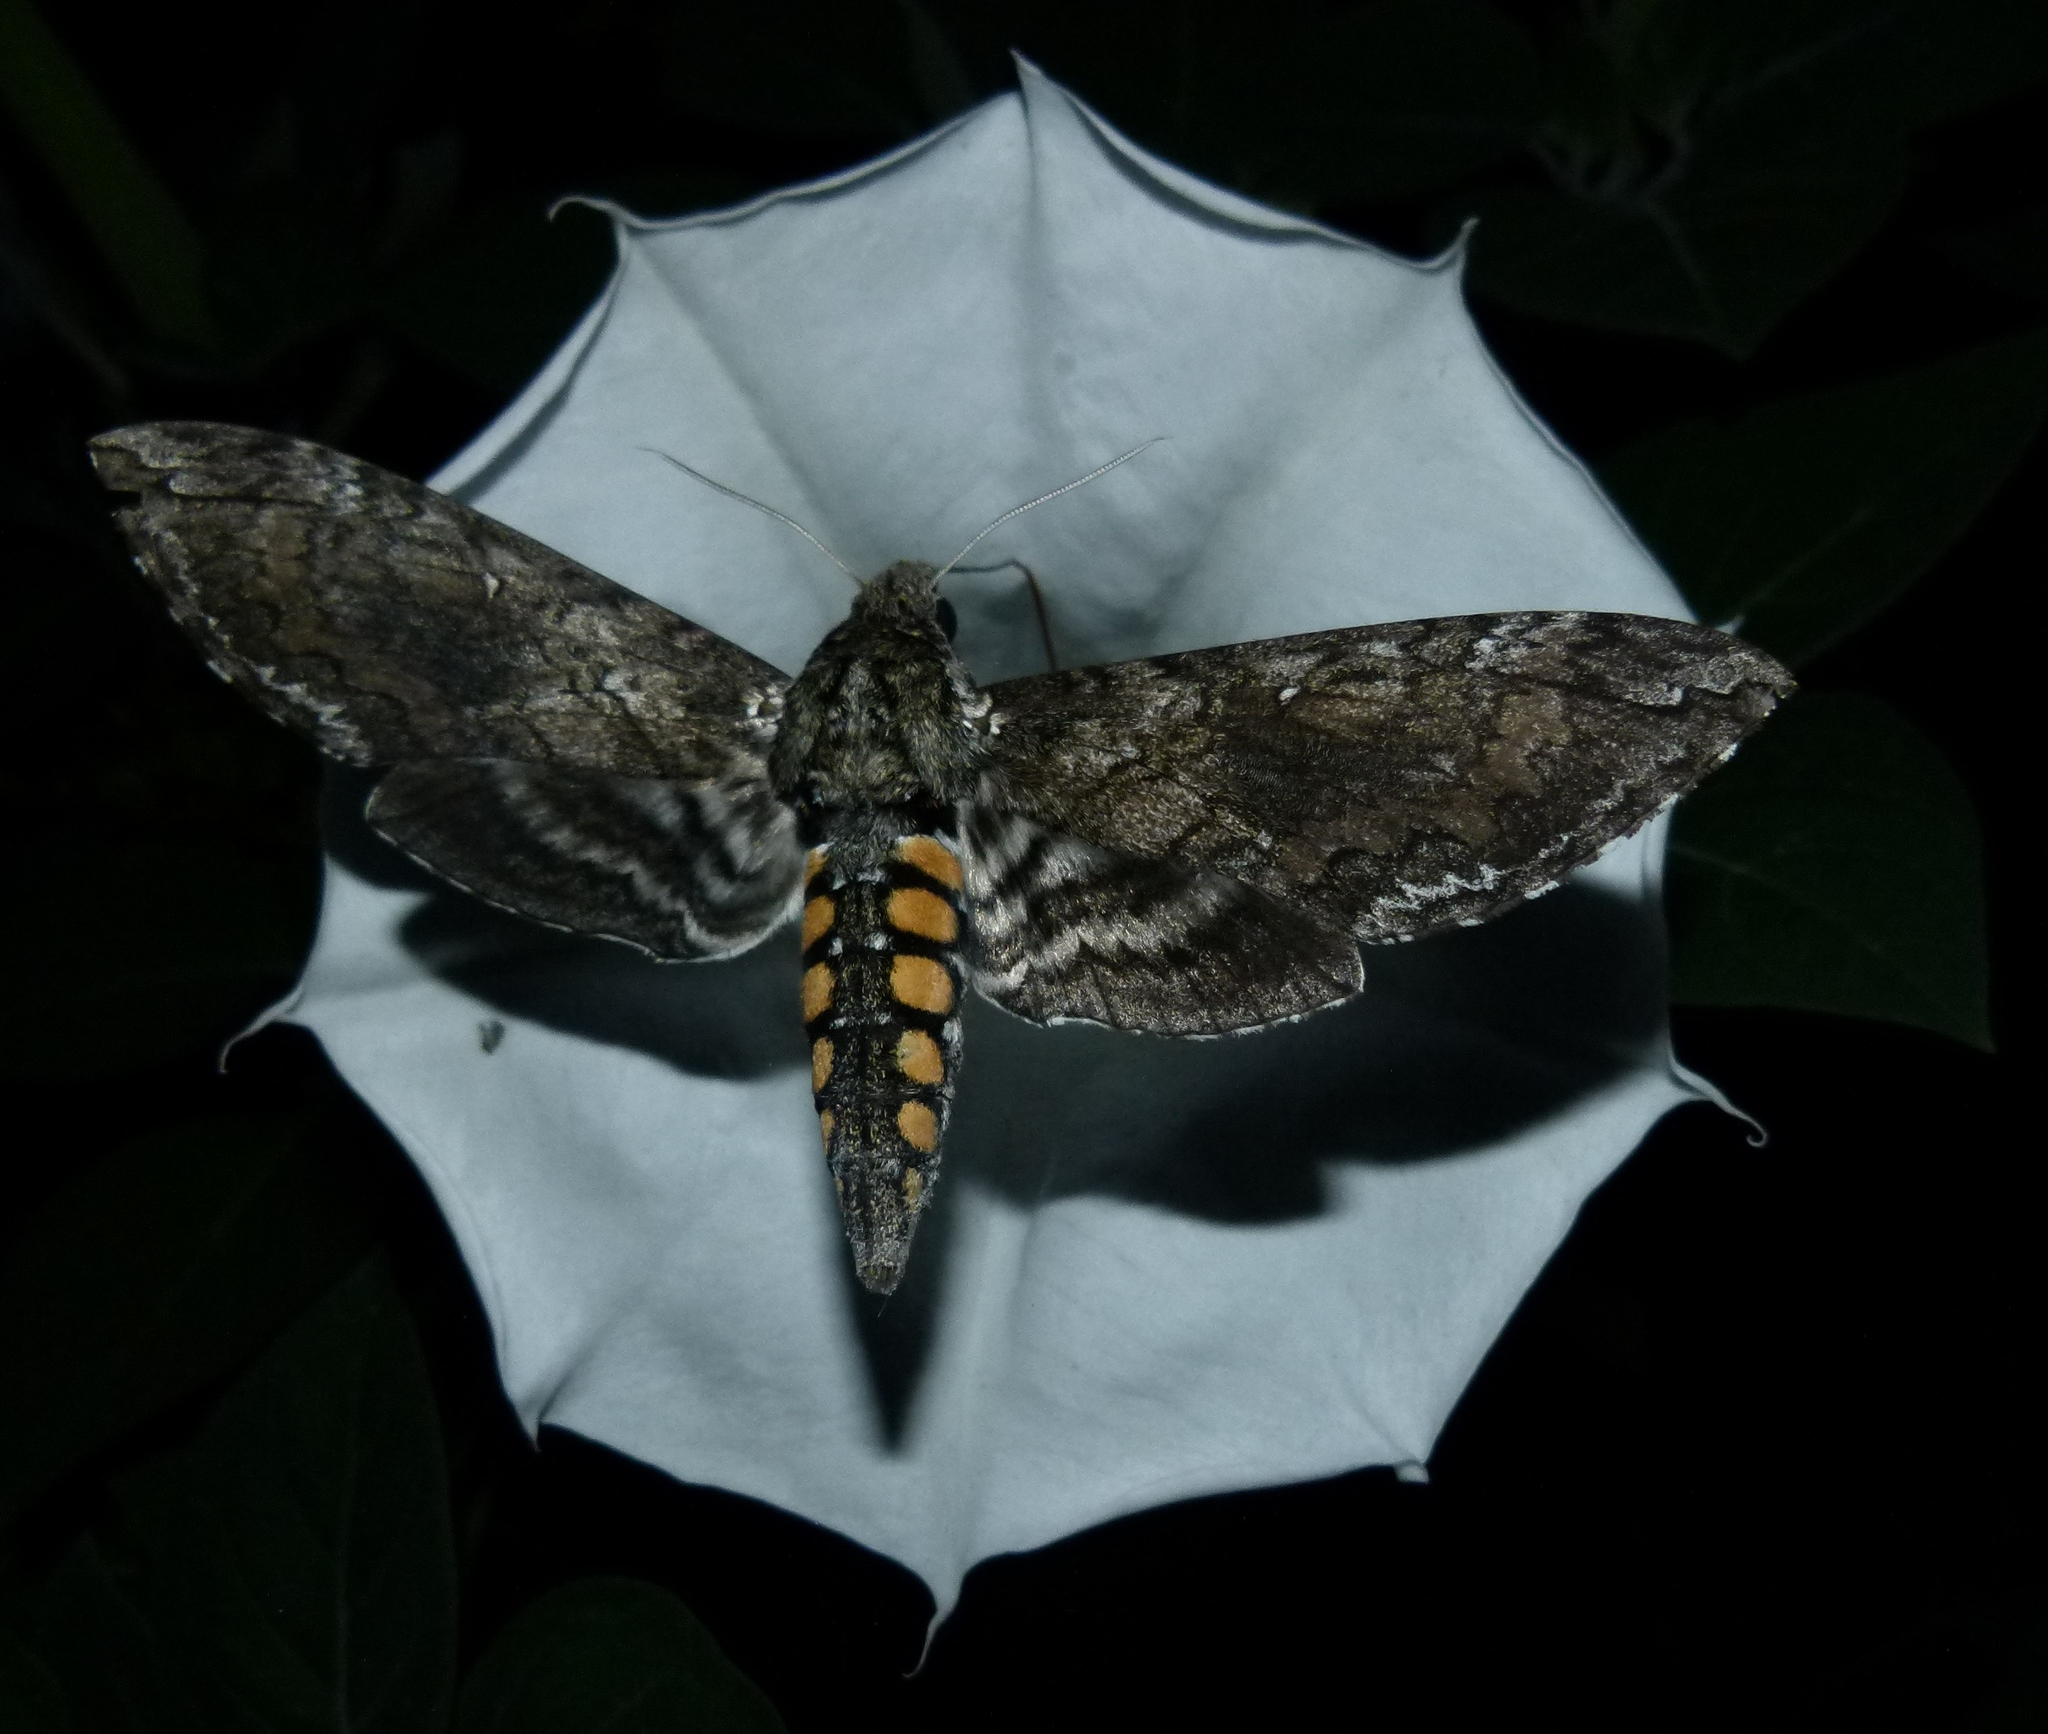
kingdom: Animalia
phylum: Arthropoda
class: Insecta
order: Lepidoptera
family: Sphingidae
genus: Manduca
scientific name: Manduca sexta
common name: Carolina sphinx
